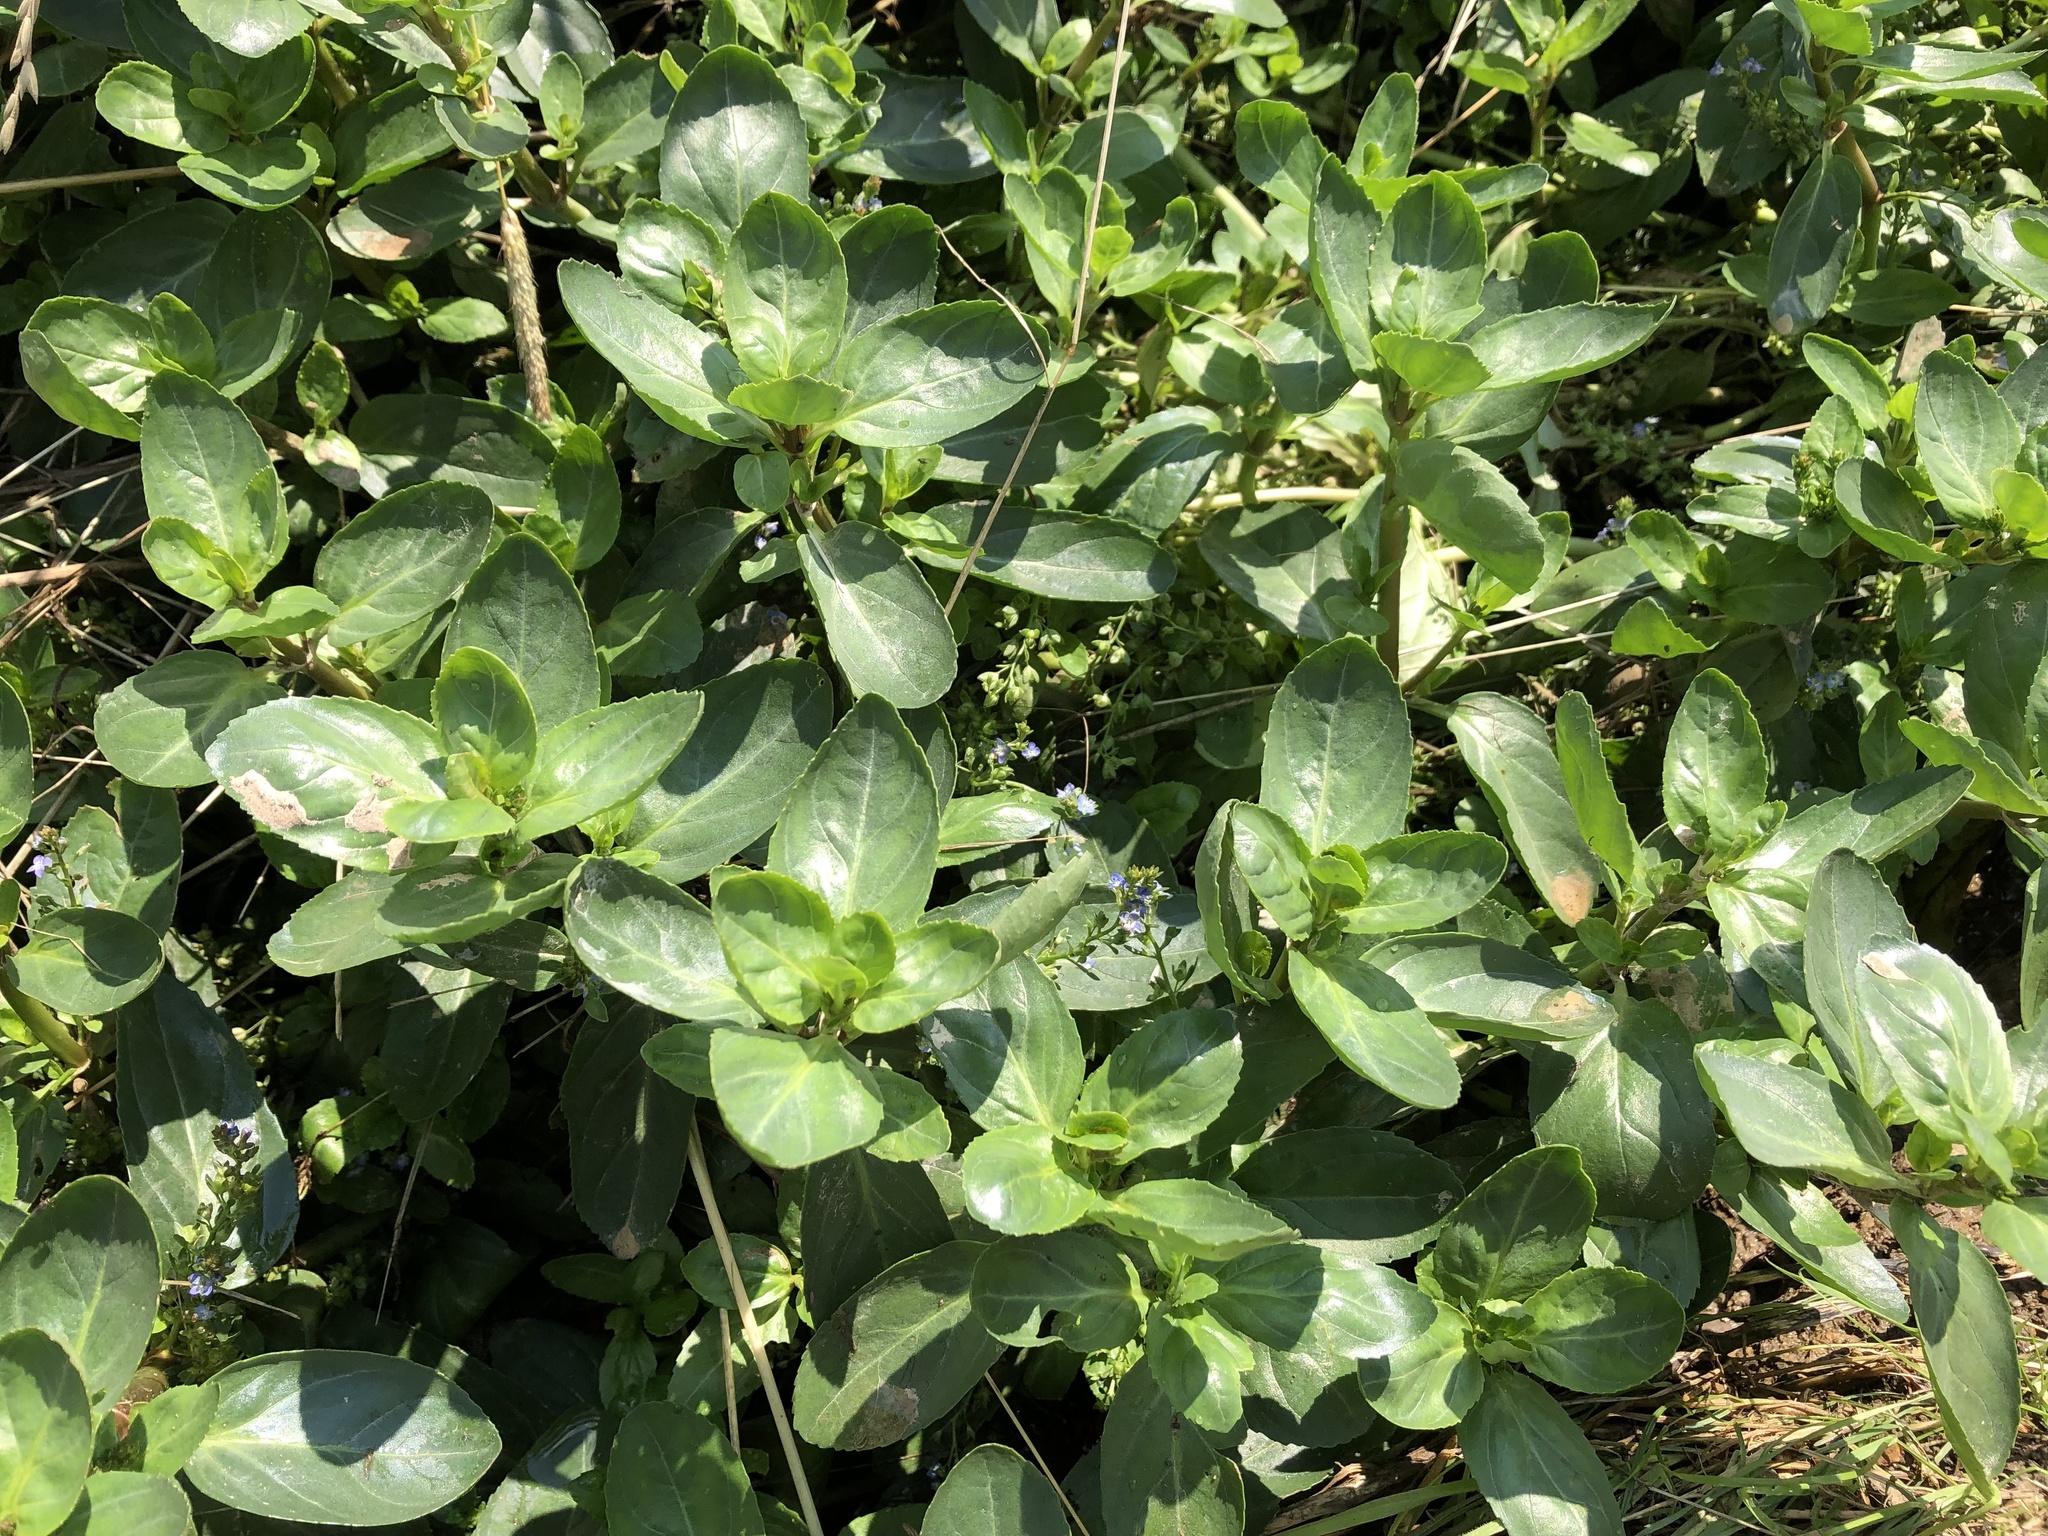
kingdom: Plantae
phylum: Tracheophyta
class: Magnoliopsida
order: Lamiales
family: Plantaginaceae
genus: Veronica
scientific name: Veronica beccabunga
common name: Brooklime
